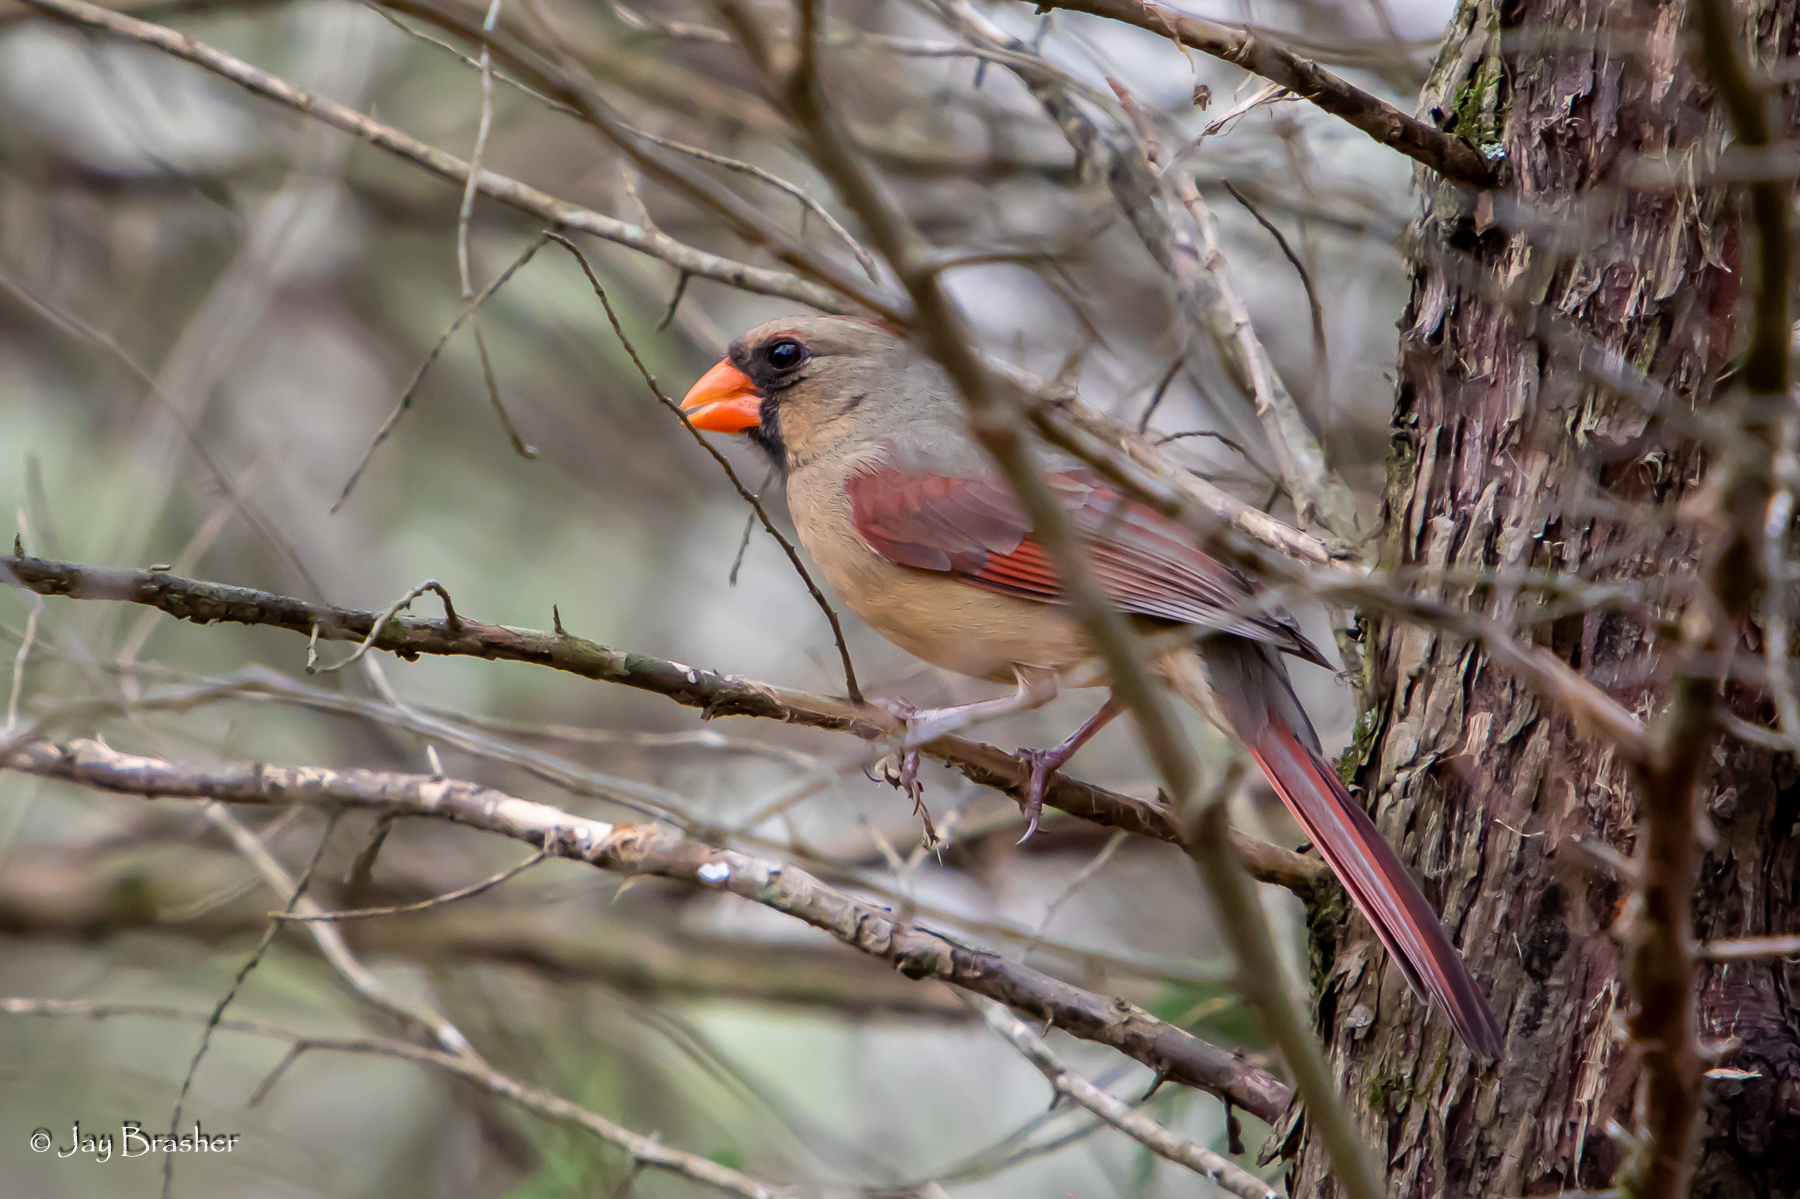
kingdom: Animalia
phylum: Chordata
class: Aves
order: Passeriformes
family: Cardinalidae
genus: Cardinalis
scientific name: Cardinalis cardinalis
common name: Northern cardinal
